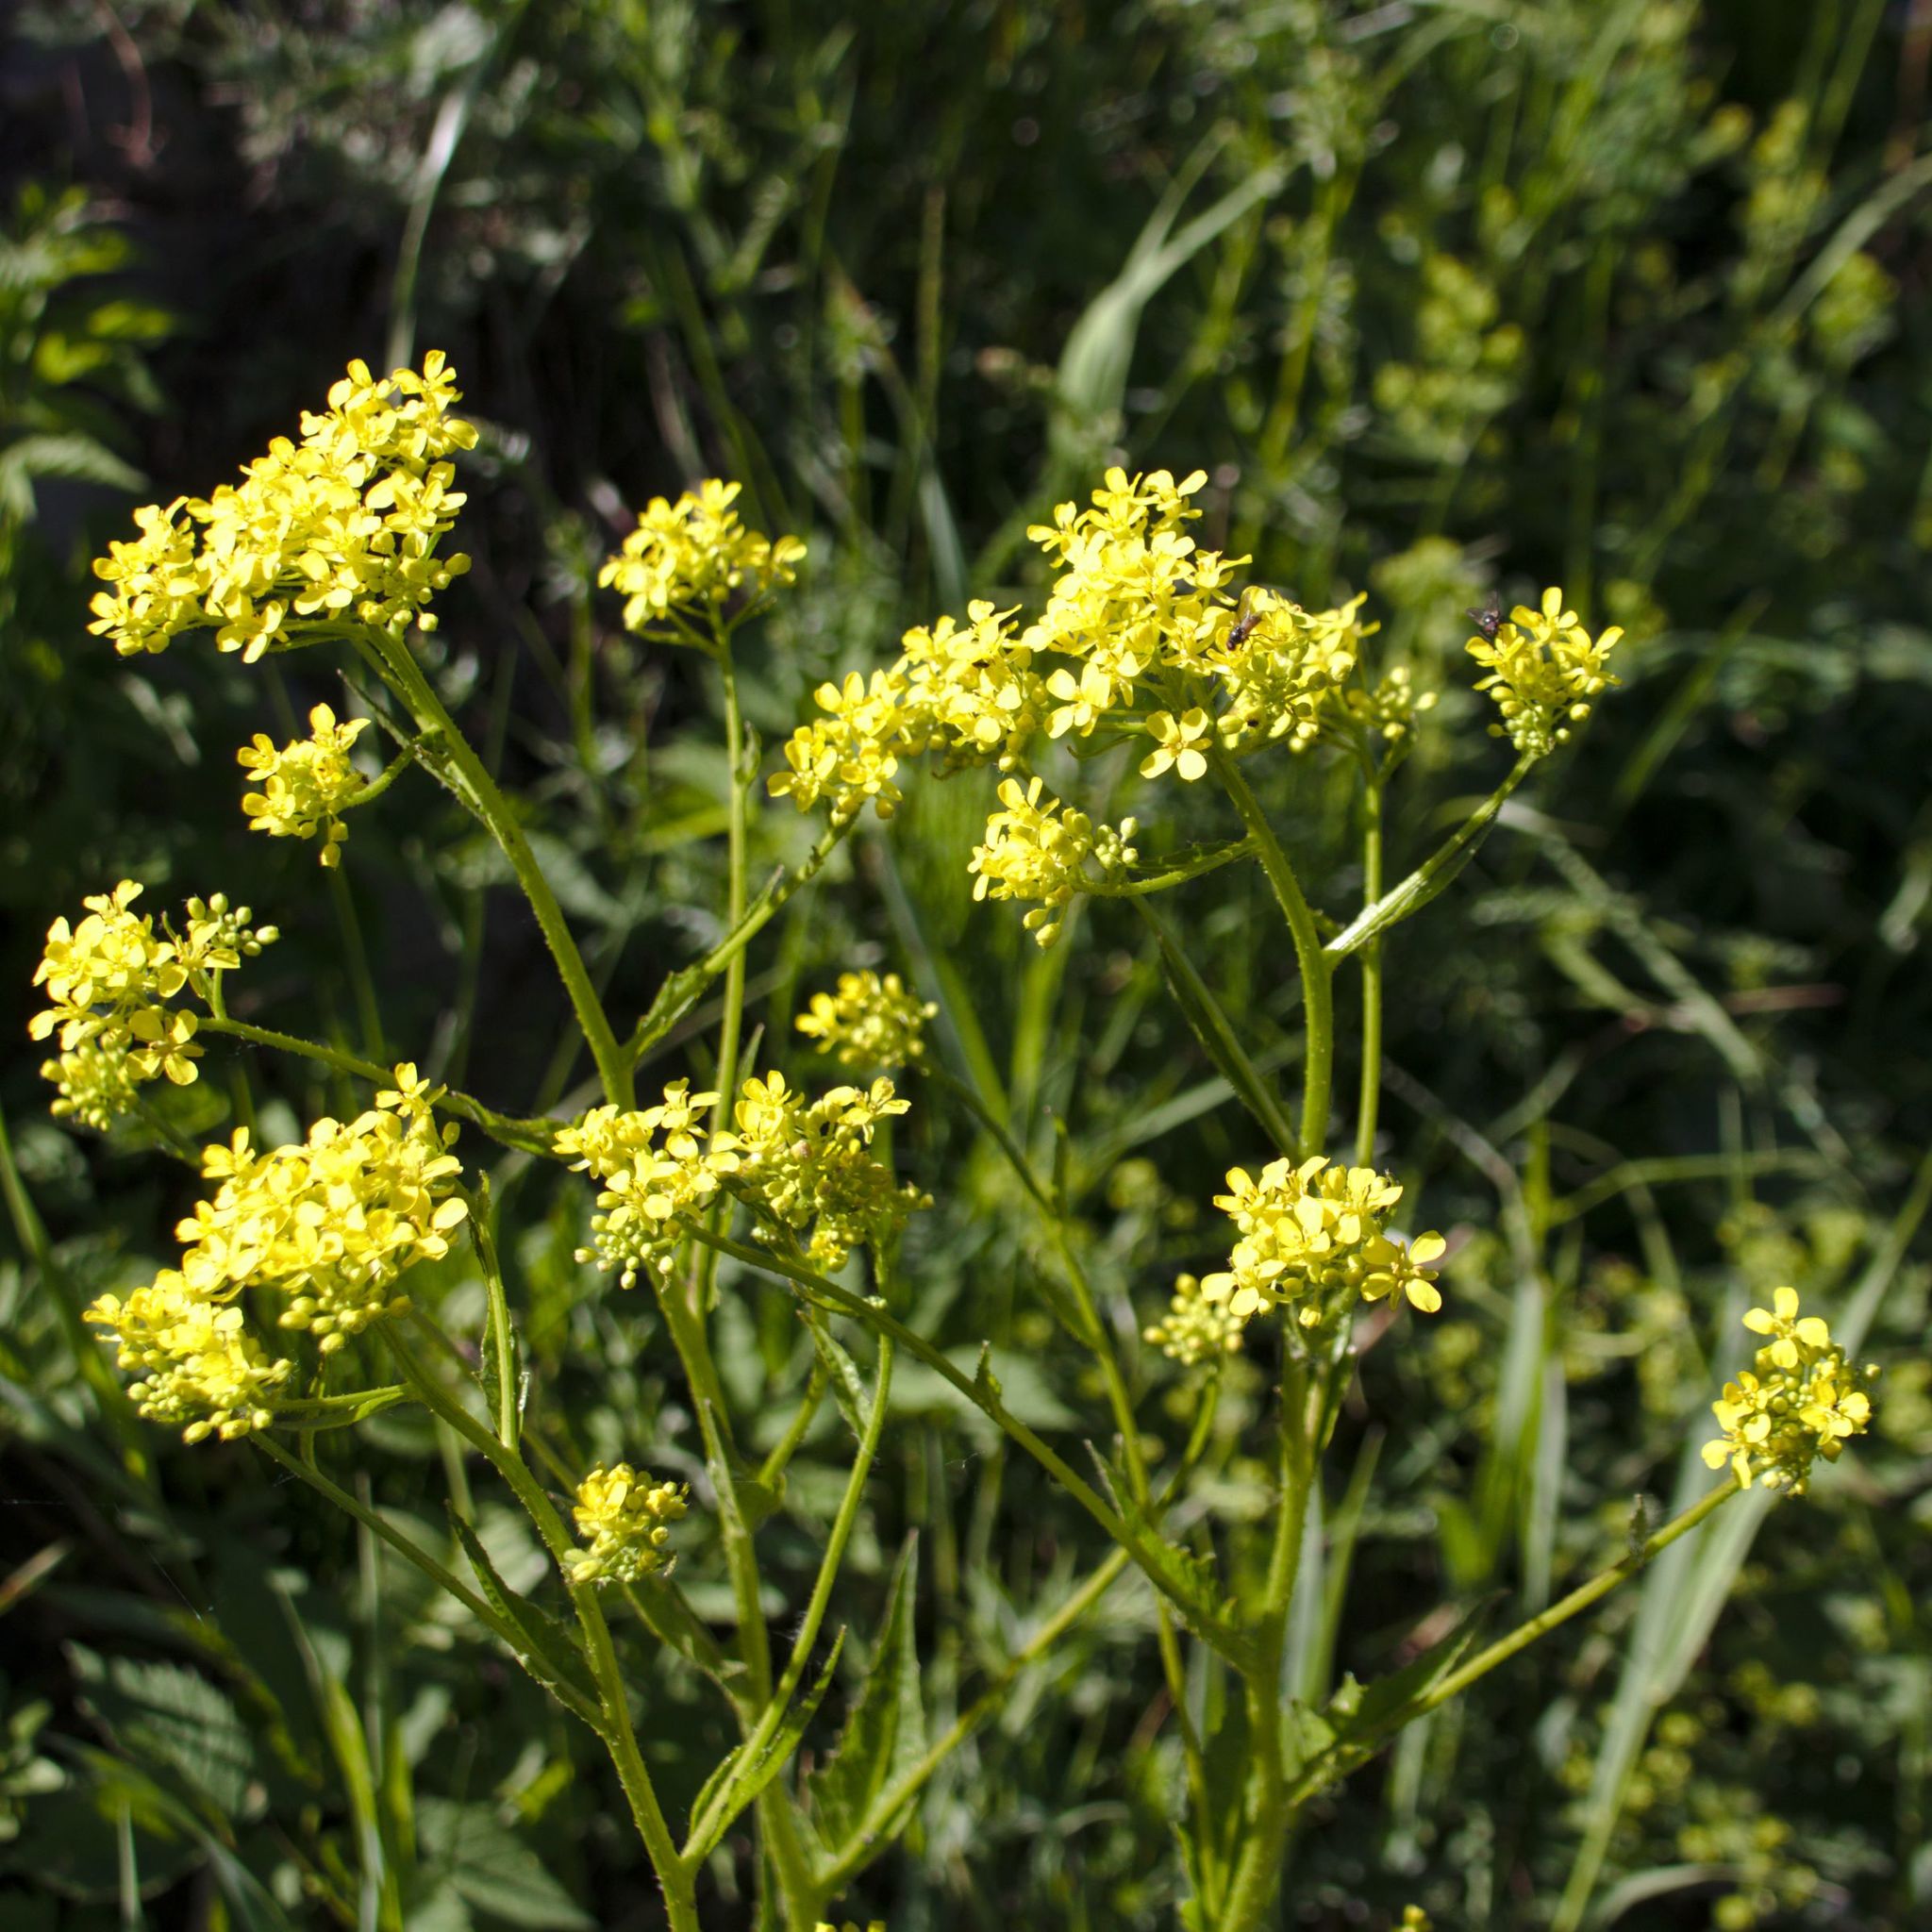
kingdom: Plantae
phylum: Tracheophyta
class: Magnoliopsida
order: Brassicales
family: Brassicaceae
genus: Bunias
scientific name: Bunias orientalis
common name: Warty-cabbage
